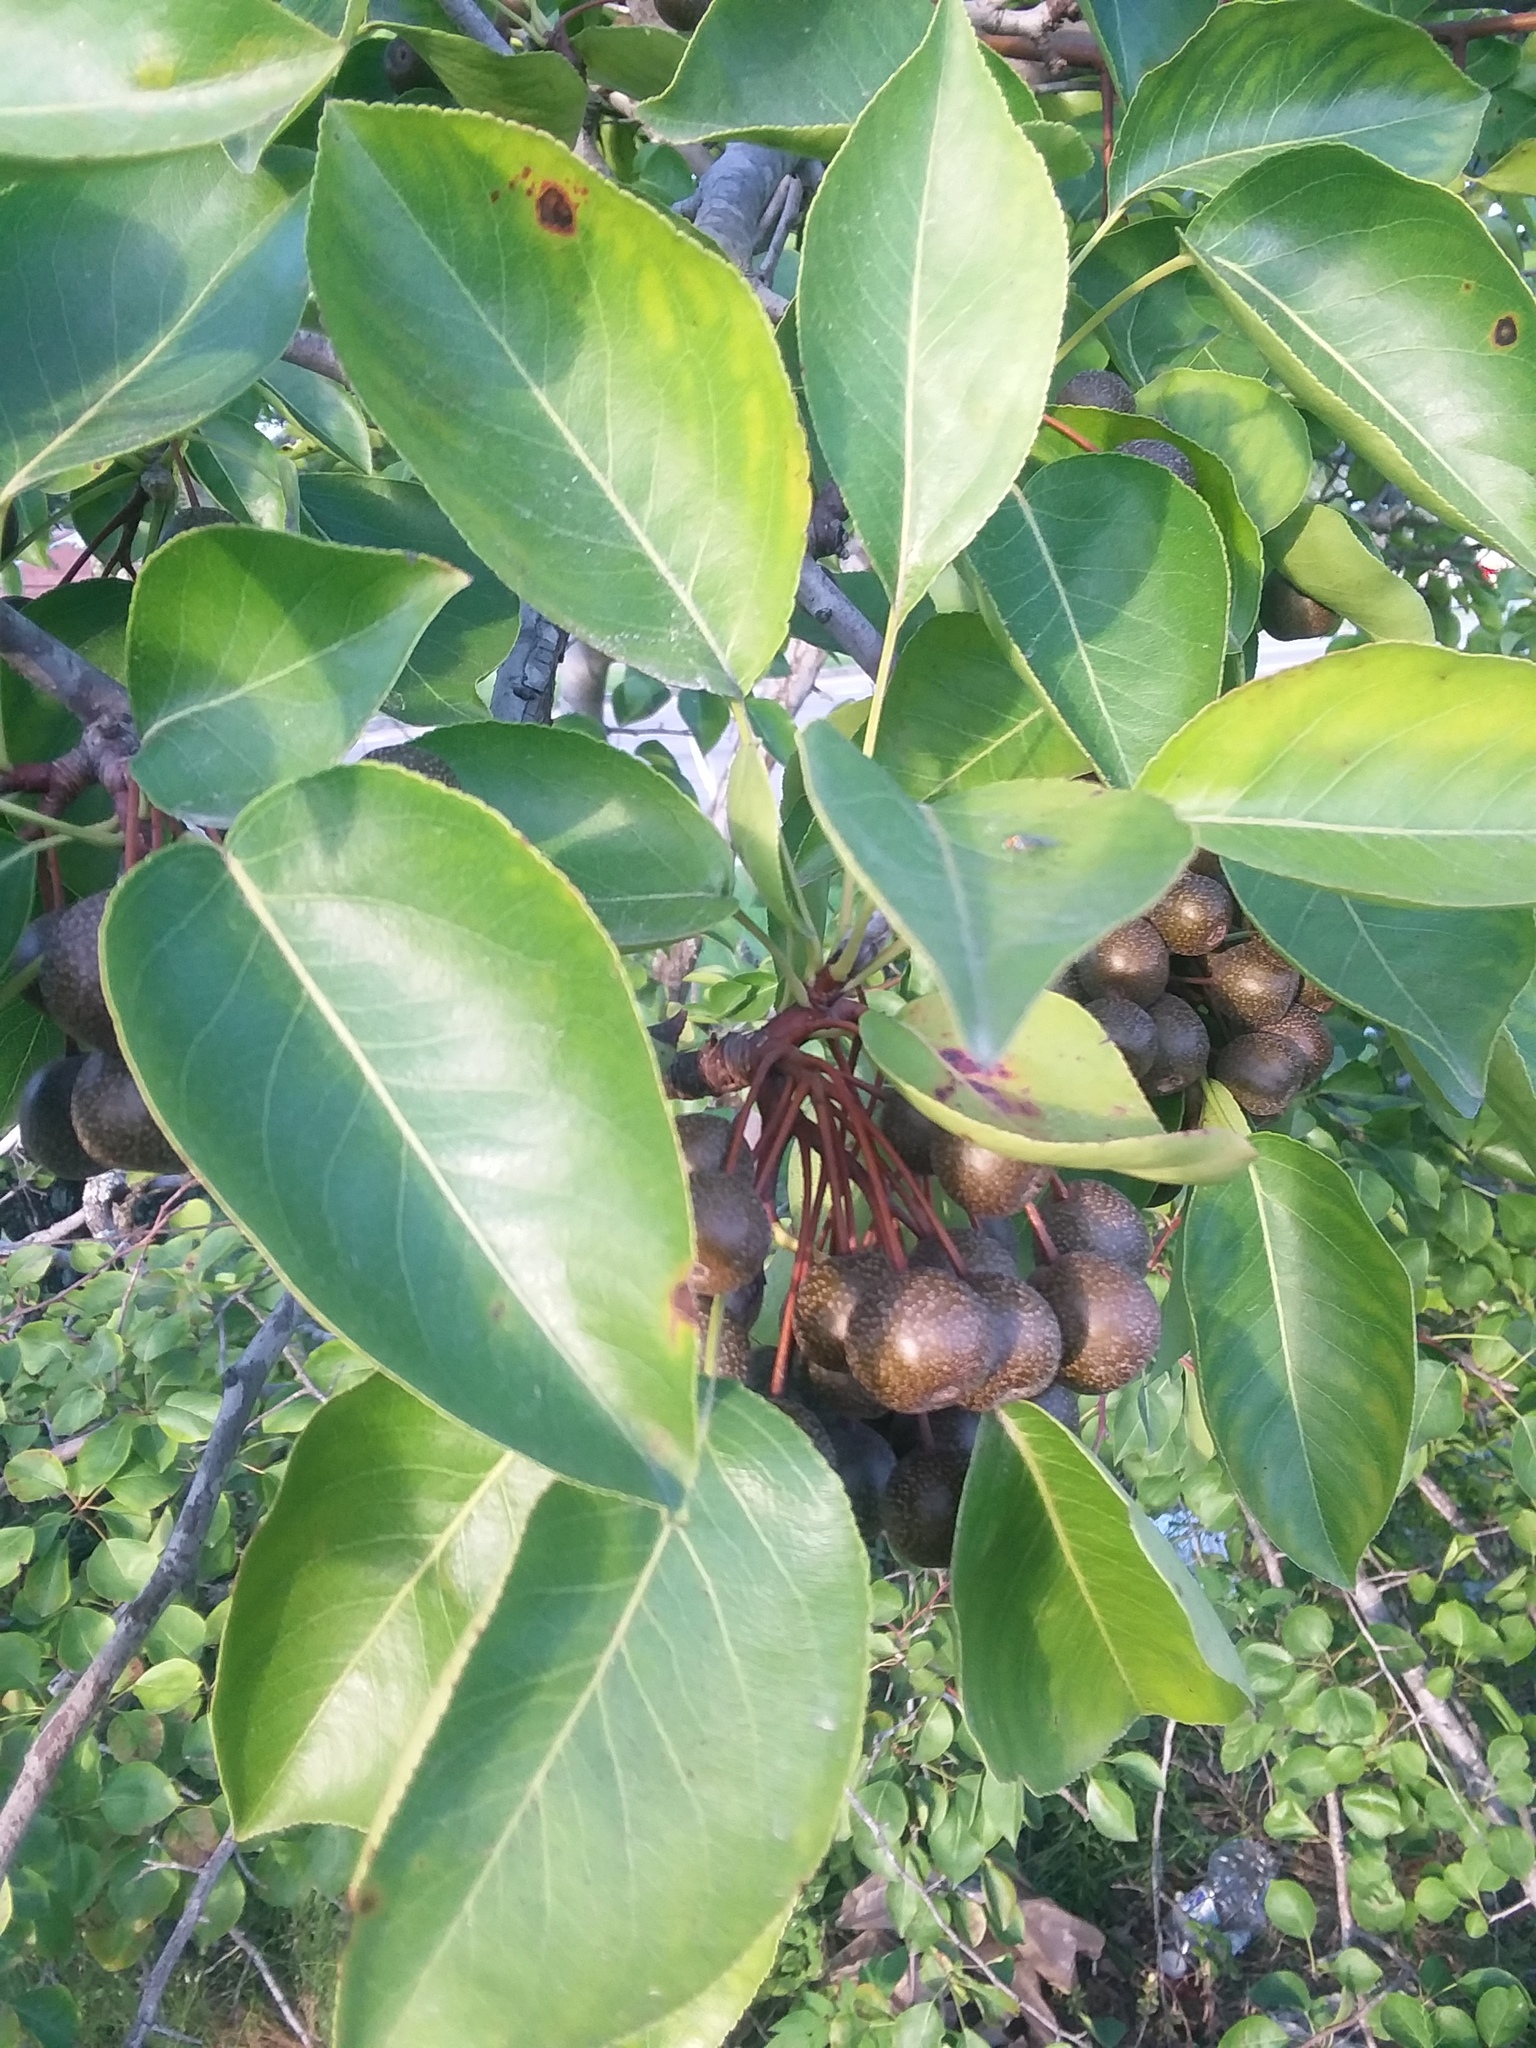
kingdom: Plantae
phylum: Tracheophyta
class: Magnoliopsida
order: Rosales
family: Rosaceae
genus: Pyrus
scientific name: Pyrus calleryana
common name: Callery pear
